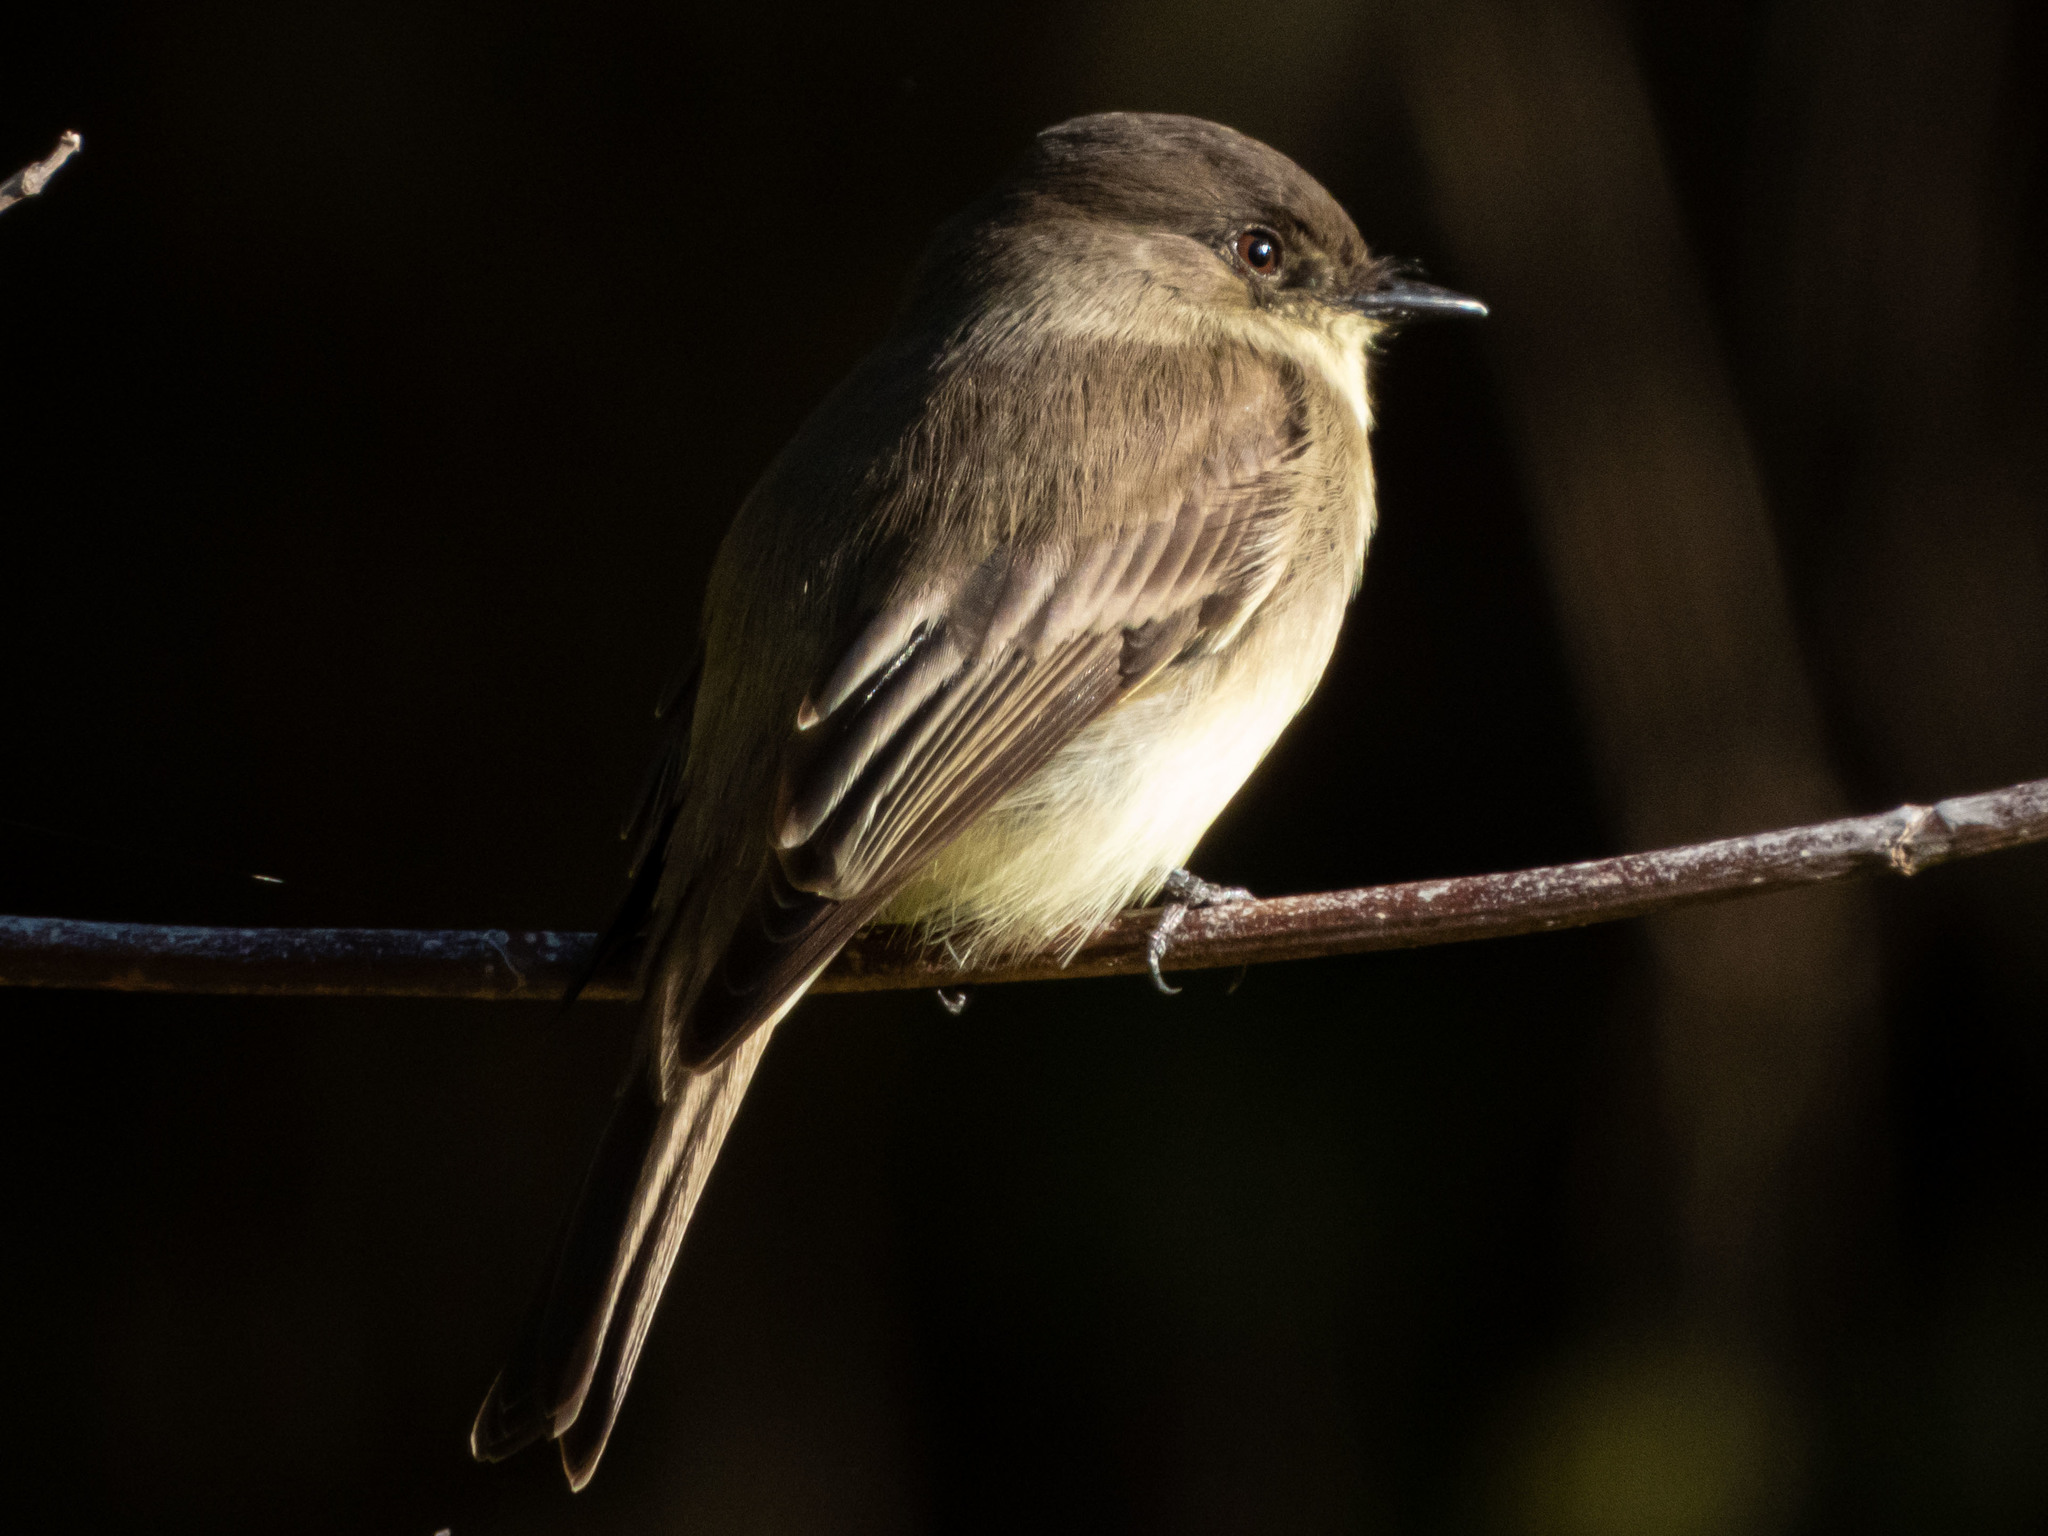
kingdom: Animalia
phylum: Chordata
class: Aves
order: Passeriformes
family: Tyrannidae
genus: Sayornis
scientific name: Sayornis phoebe
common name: Eastern phoebe
